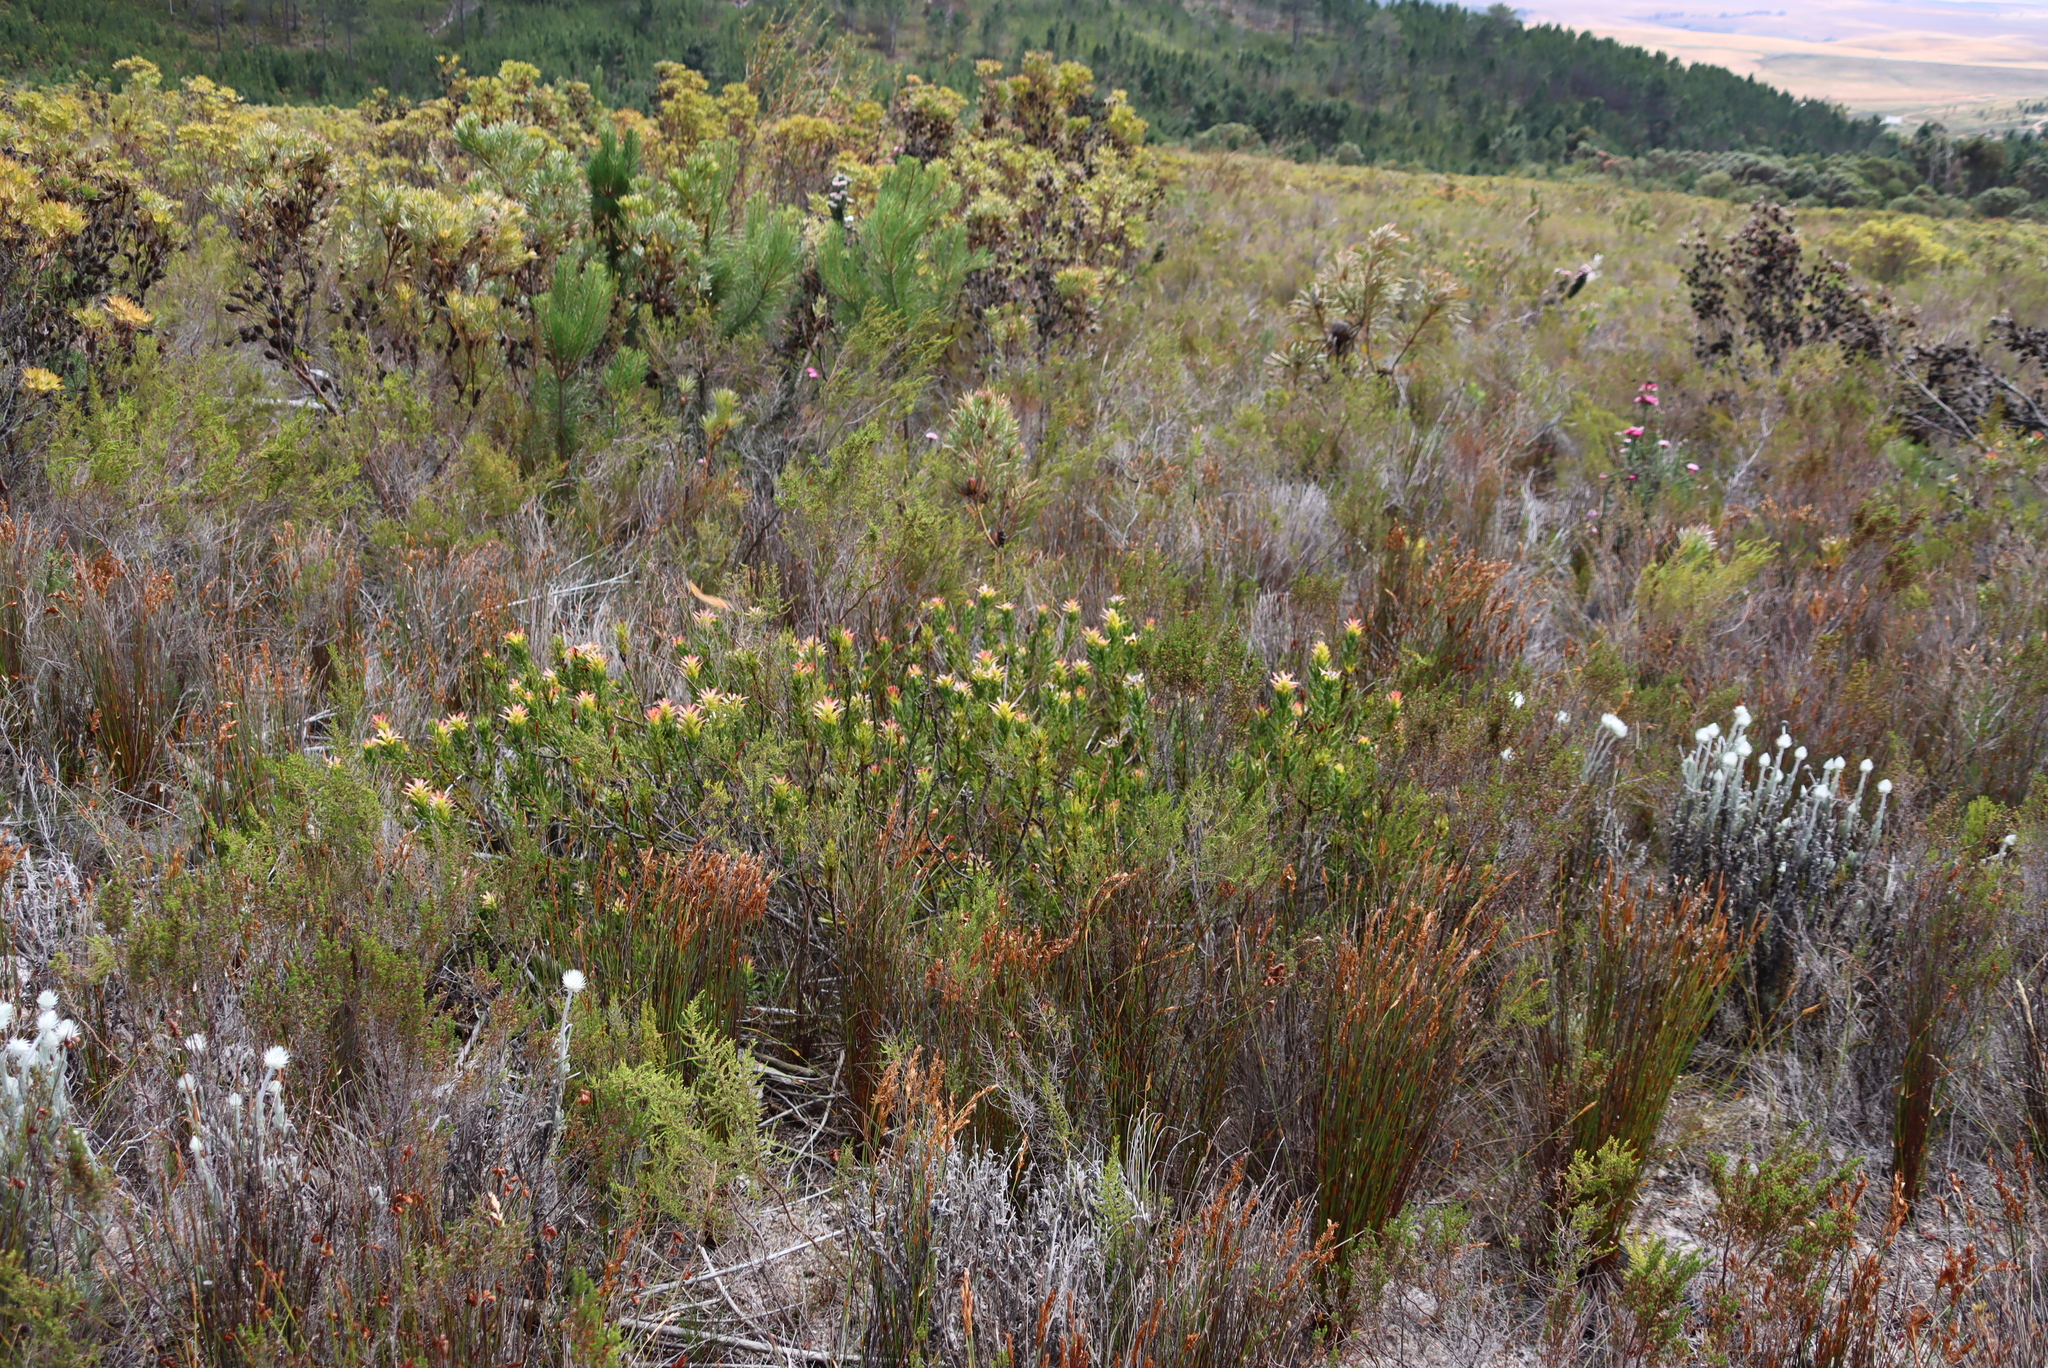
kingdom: Plantae
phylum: Tracheophyta
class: Magnoliopsida
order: Proteales
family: Proteaceae
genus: Mimetes
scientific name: Mimetes cucullatus
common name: Common pagoda
